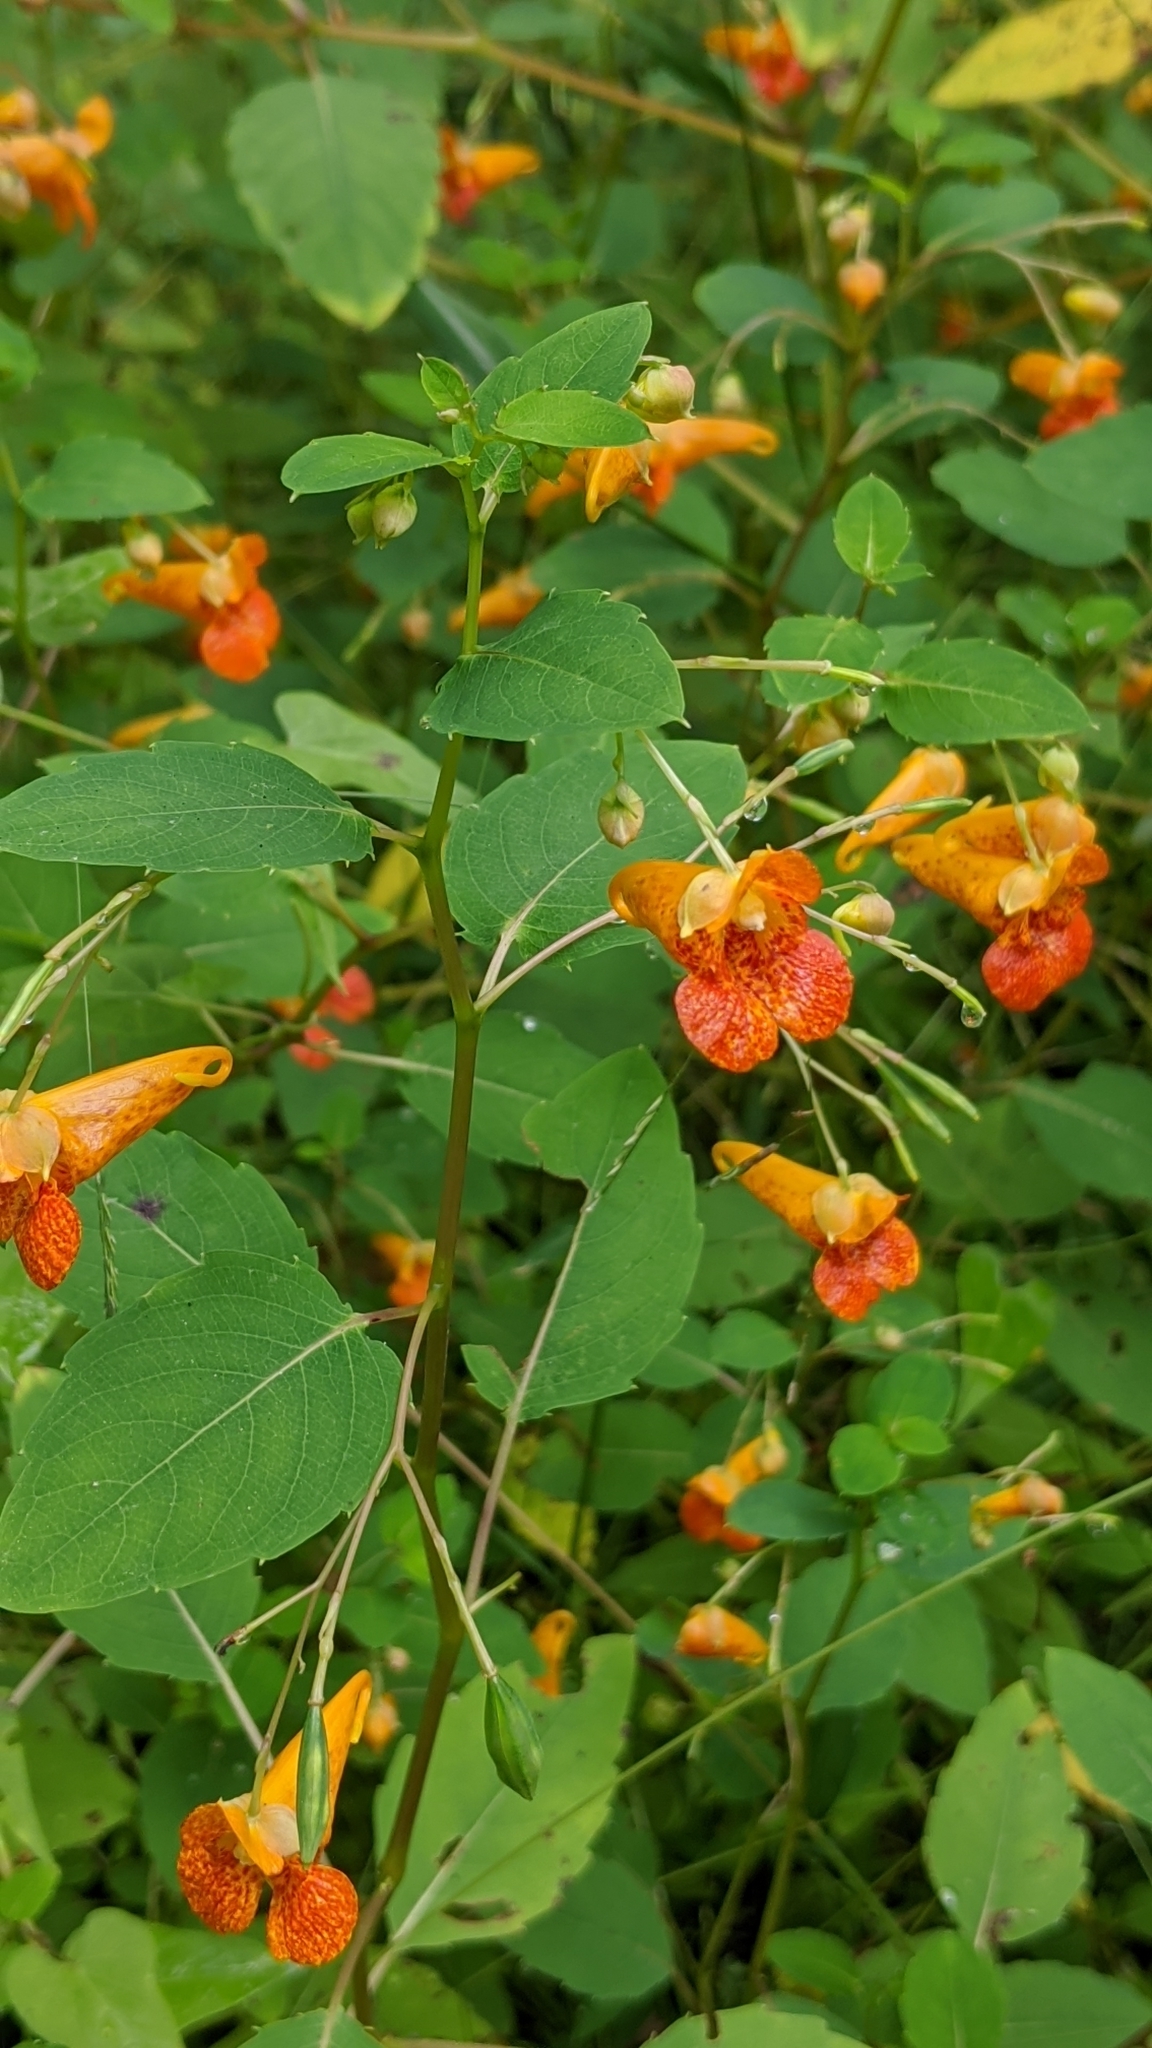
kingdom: Plantae
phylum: Tracheophyta
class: Magnoliopsida
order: Ericales
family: Balsaminaceae
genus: Impatiens
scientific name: Impatiens capensis
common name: Orange balsam
